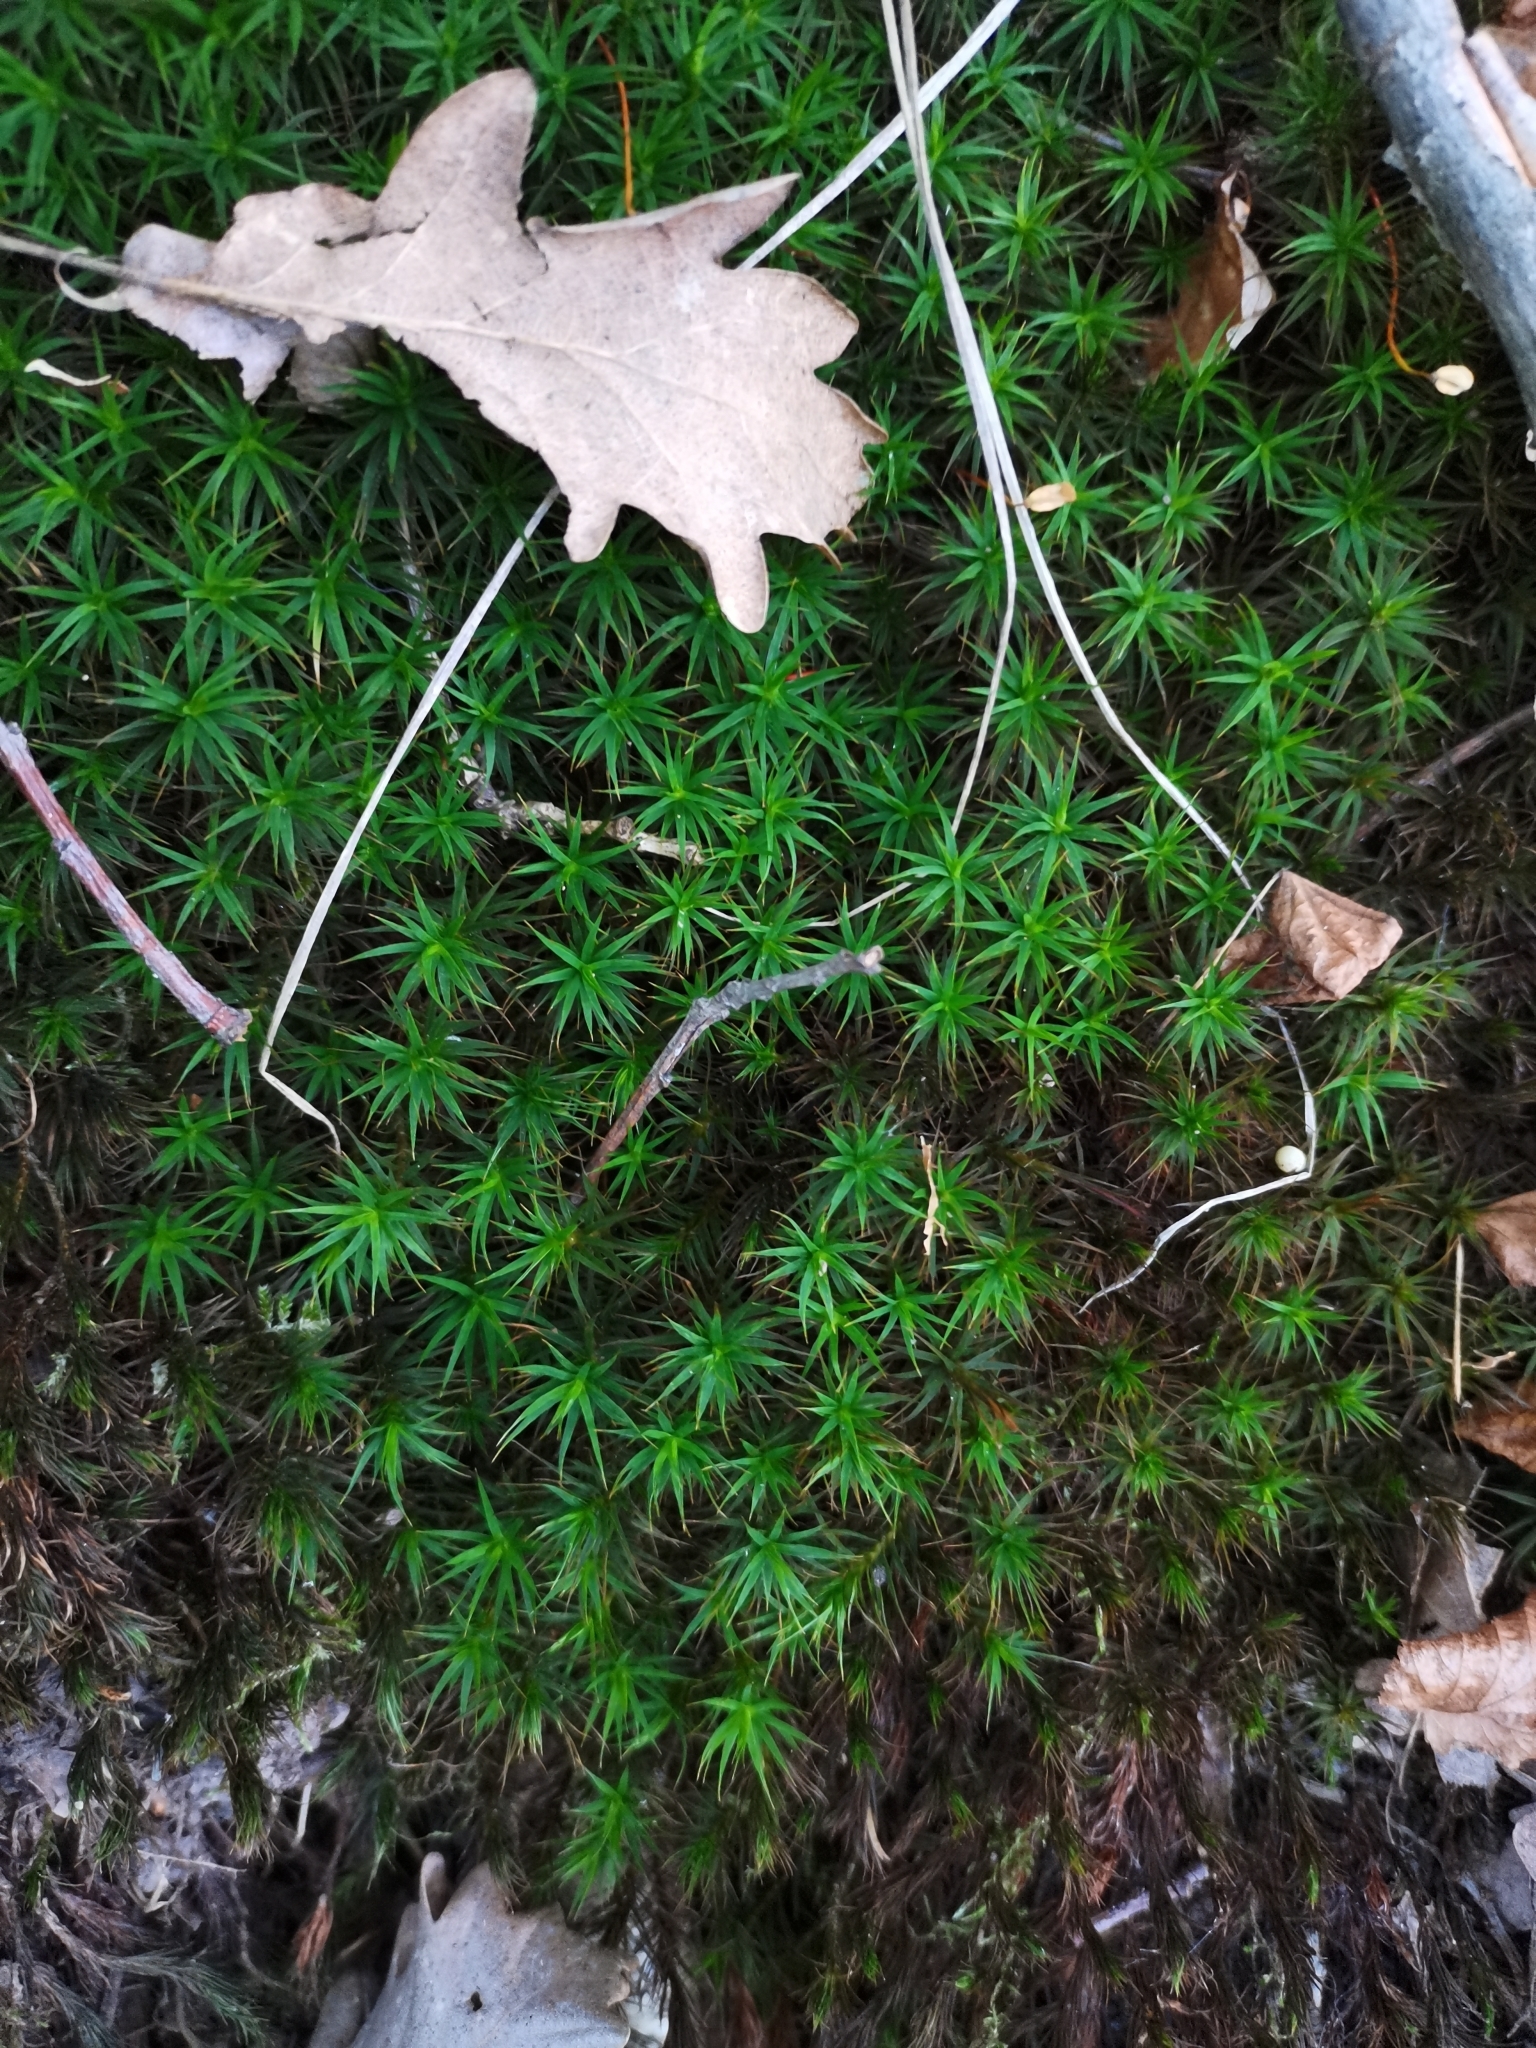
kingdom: Plantae
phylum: Bryophyta
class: Polytrichopsida
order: Polytrichales
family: Polytrichaceae
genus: Polytrichum
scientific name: Polytrichum formosum
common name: Bank haircap moss
